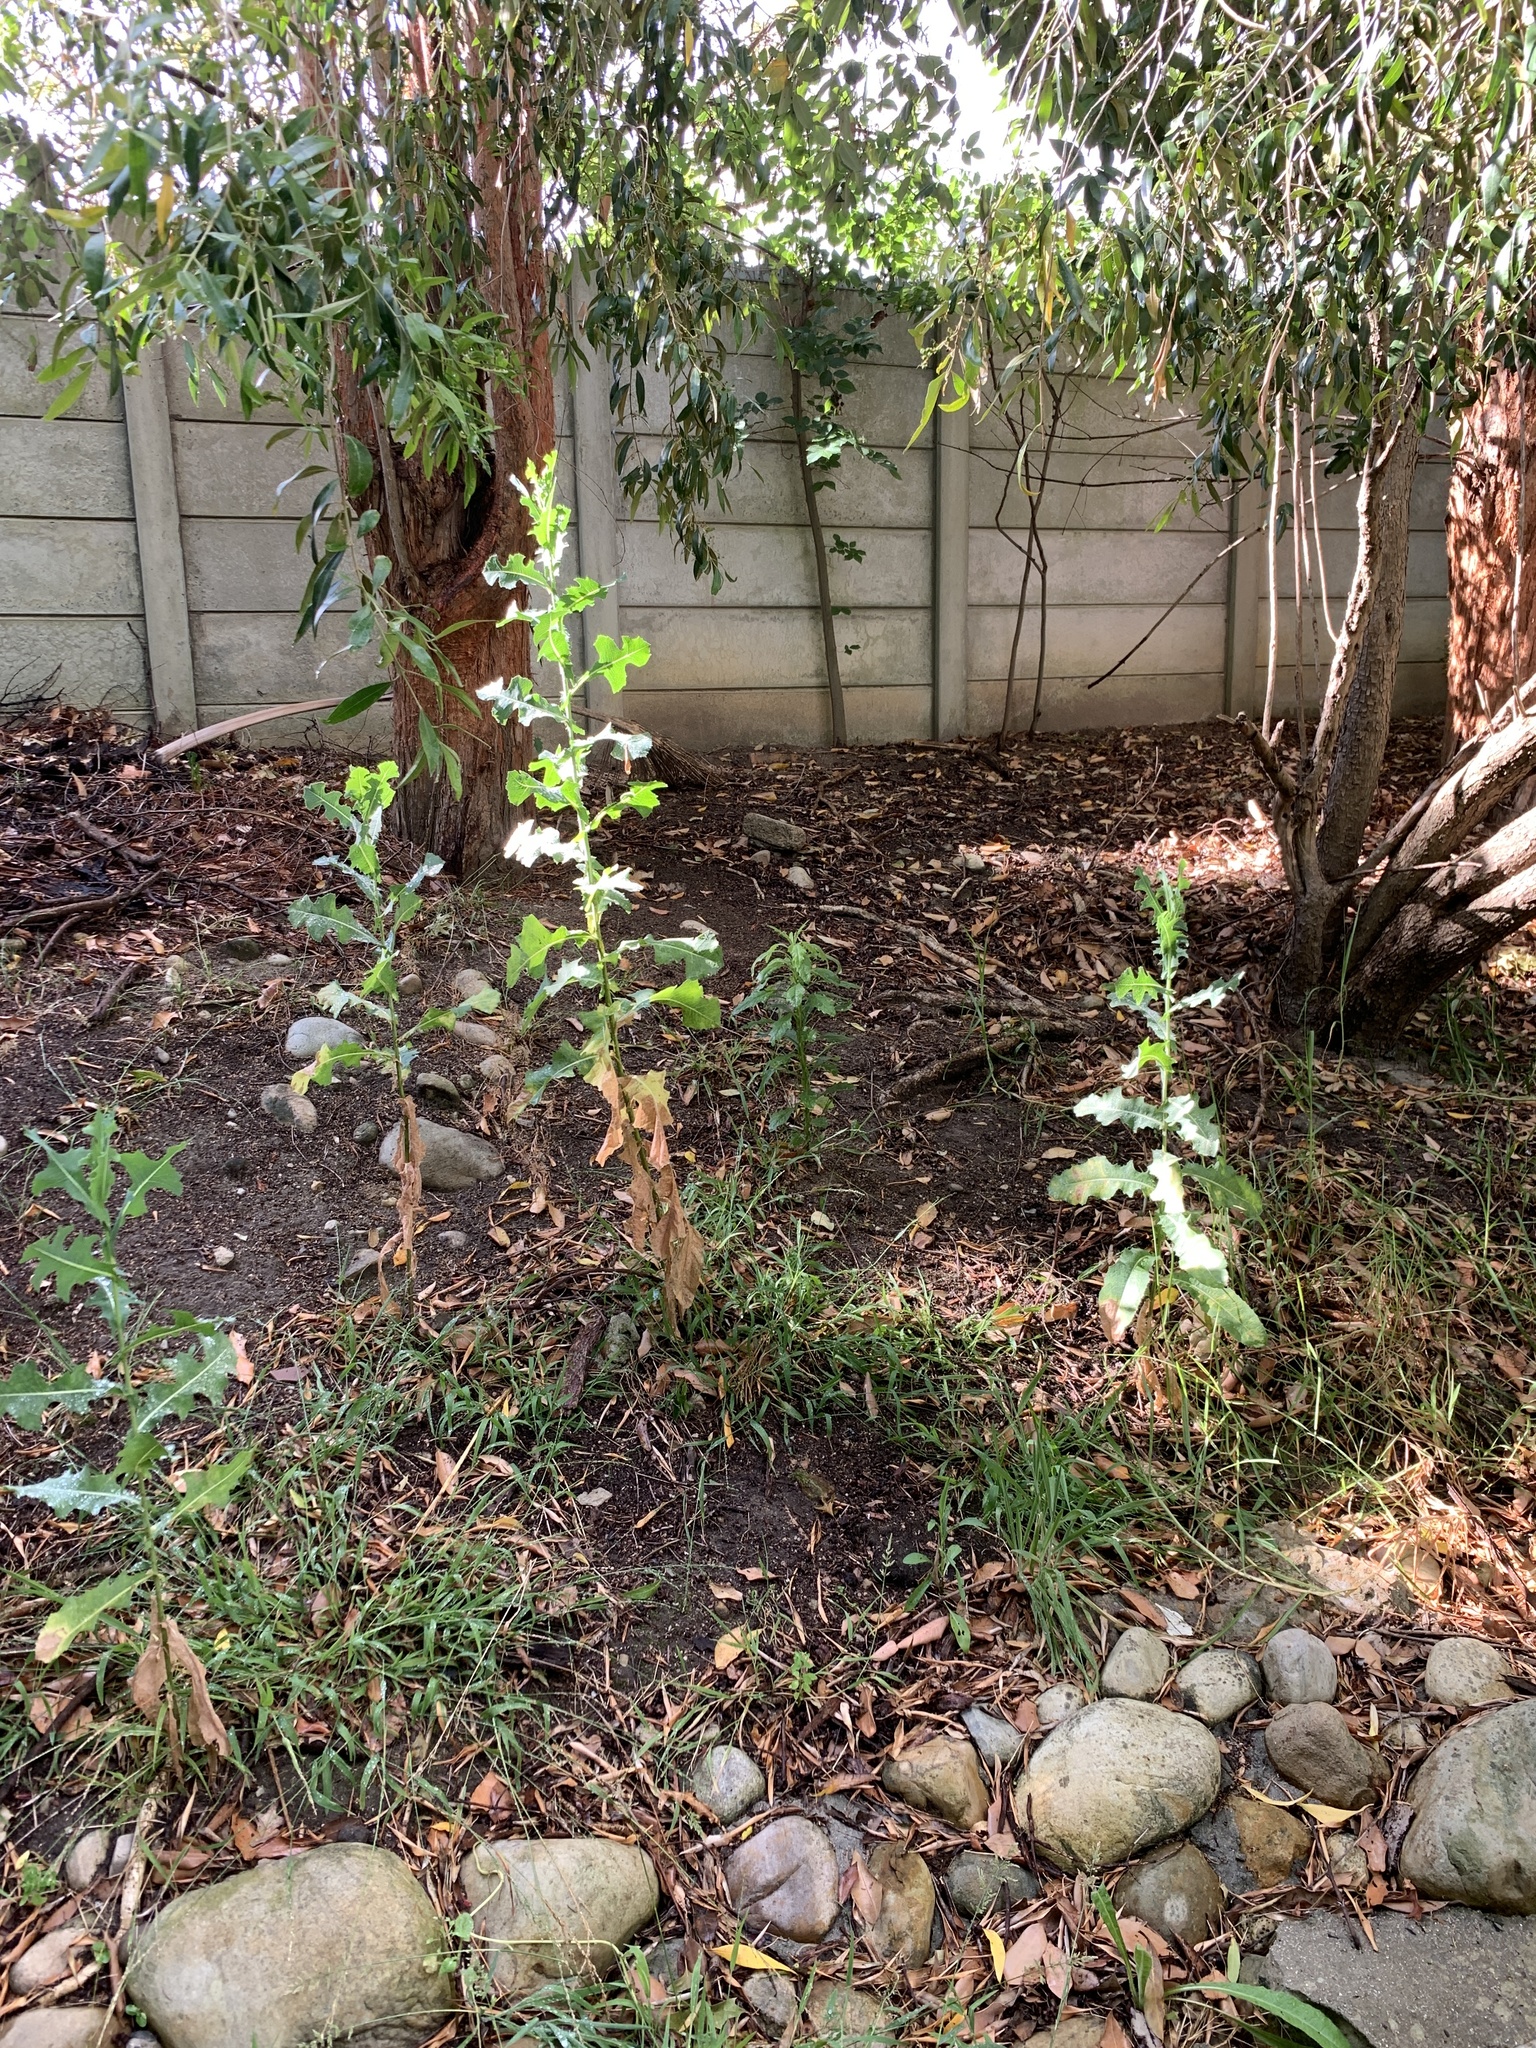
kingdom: Plantae
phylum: Tracheophyta
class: Magnoliopsida
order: Asterales
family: Asteraceae
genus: Lactuca
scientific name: Lactuca serriola
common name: Prickly lettuce
